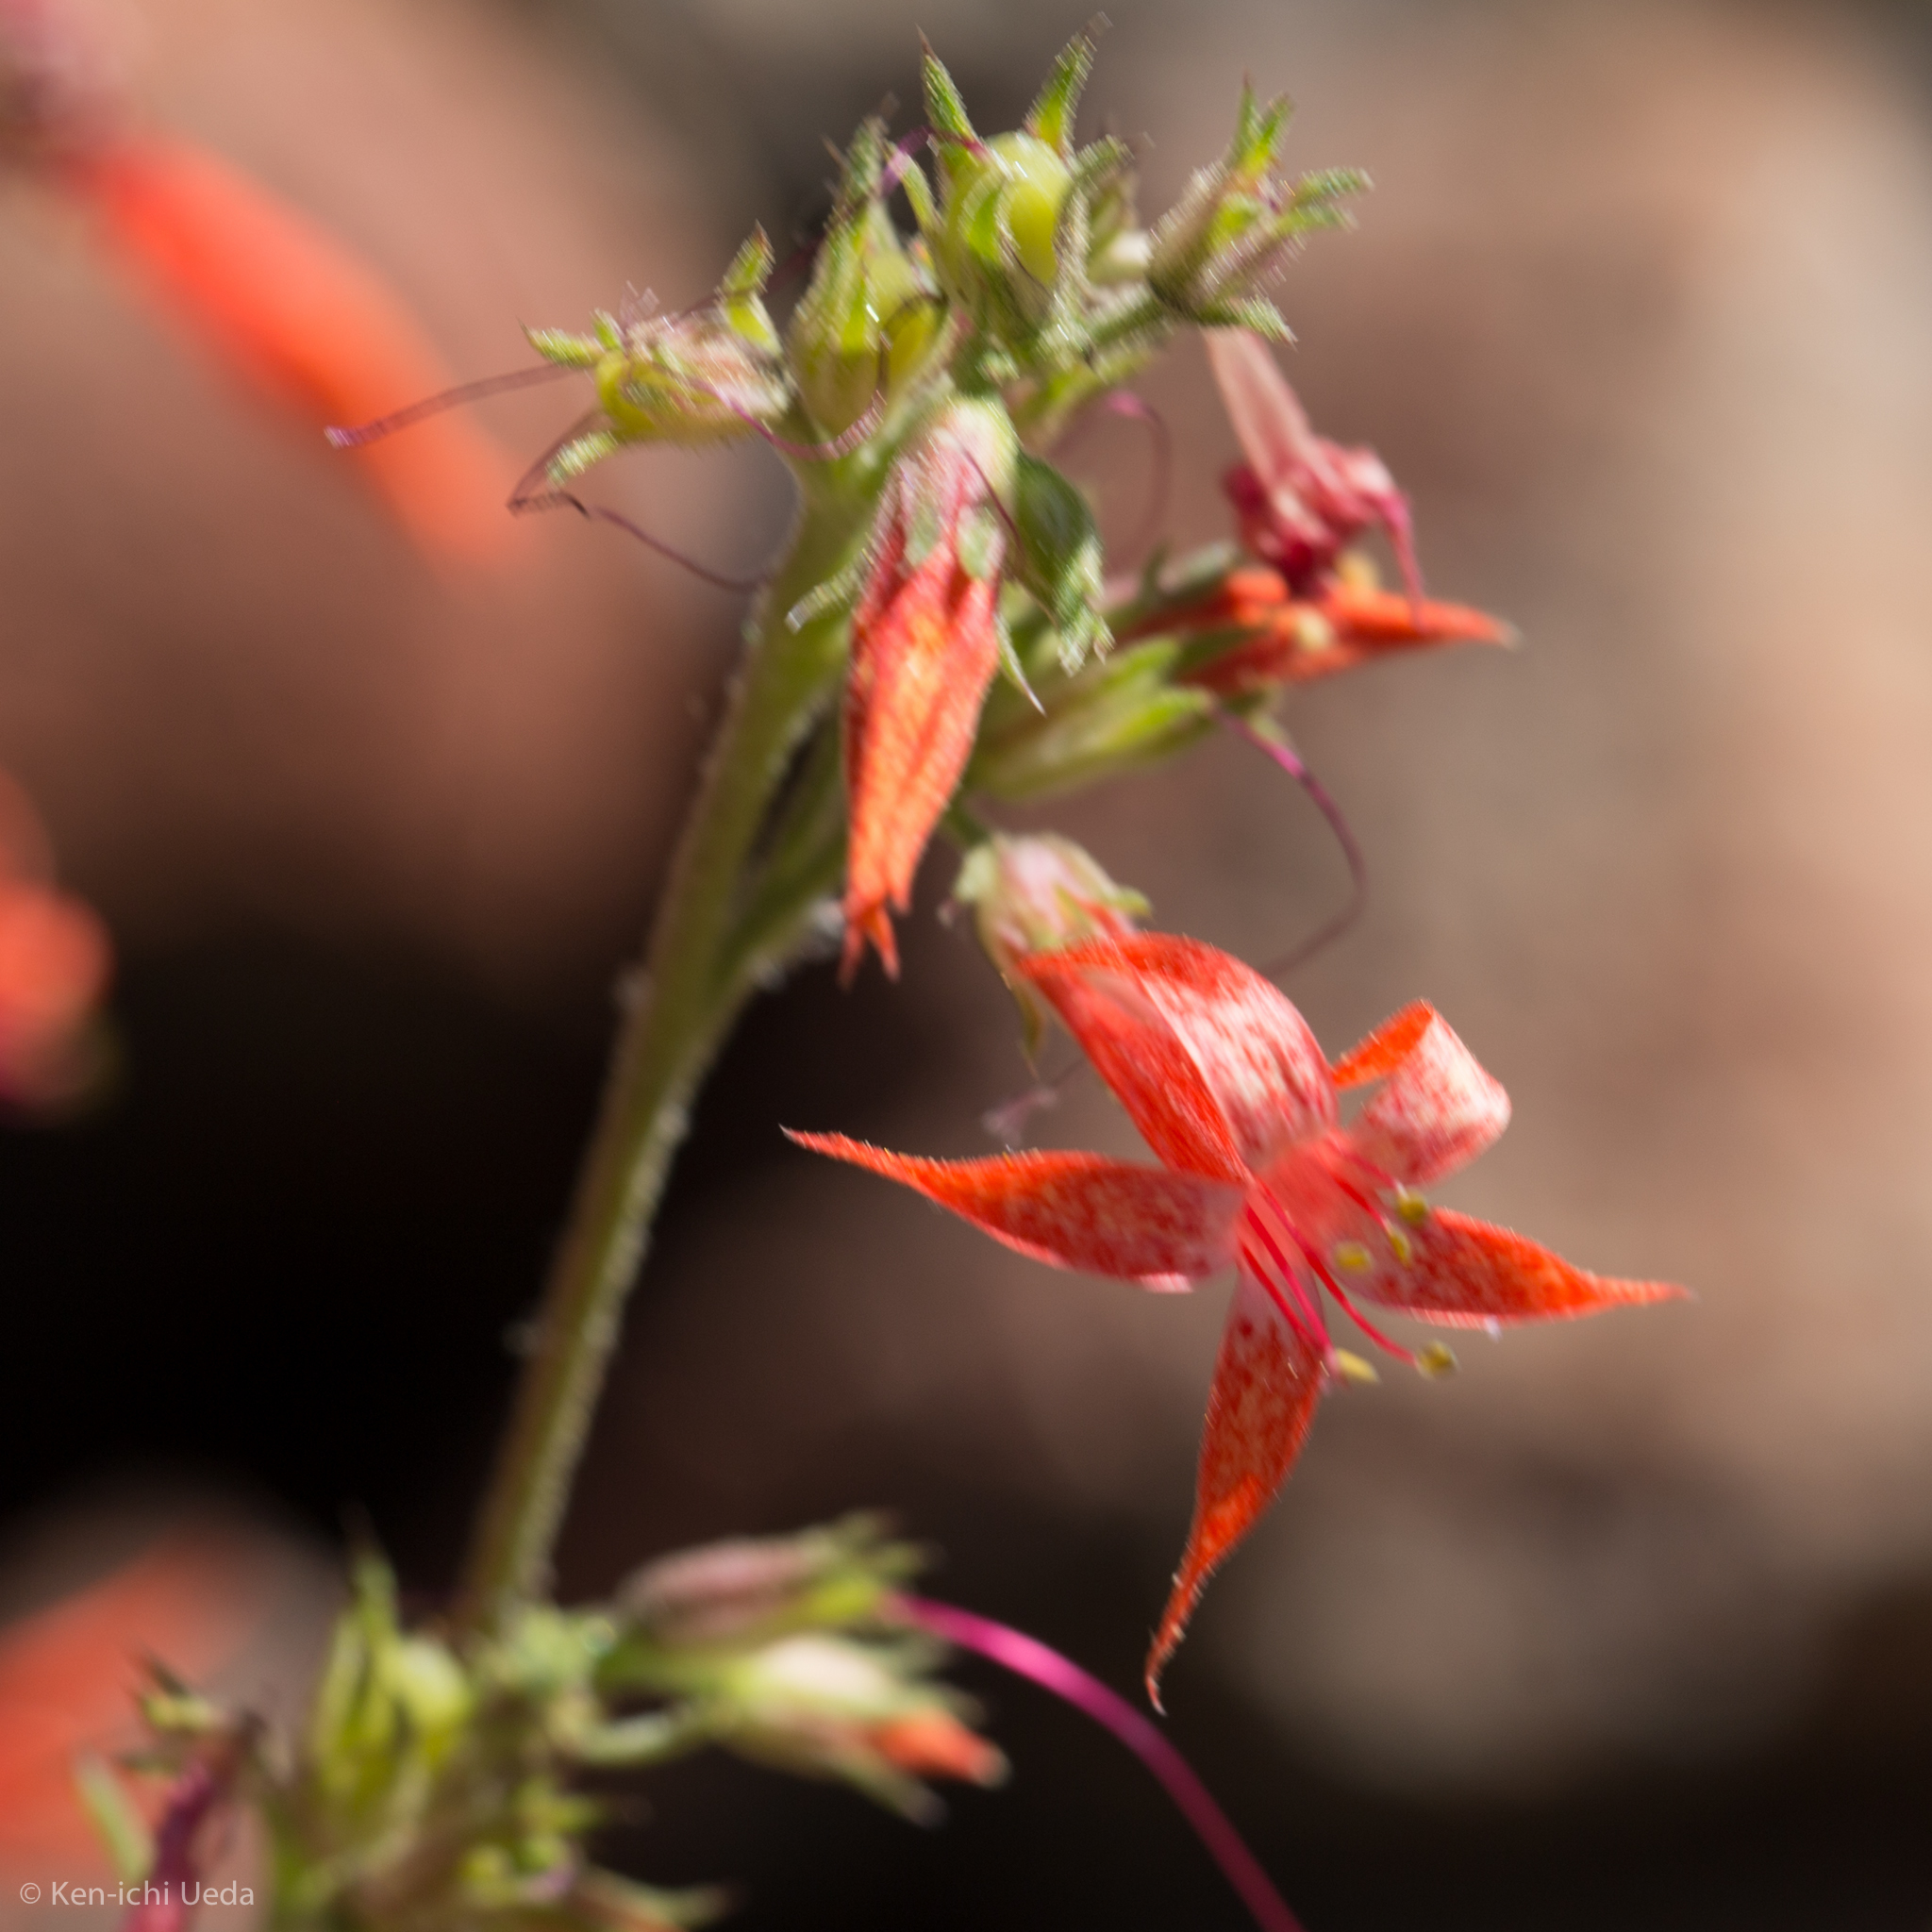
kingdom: Plantae
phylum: Tracheophyta
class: Magnoliopsida
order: Ericales
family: Polemoniaceae
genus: Ipomopsis
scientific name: Ipomopsis aggregata
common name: Scarlet gilia
